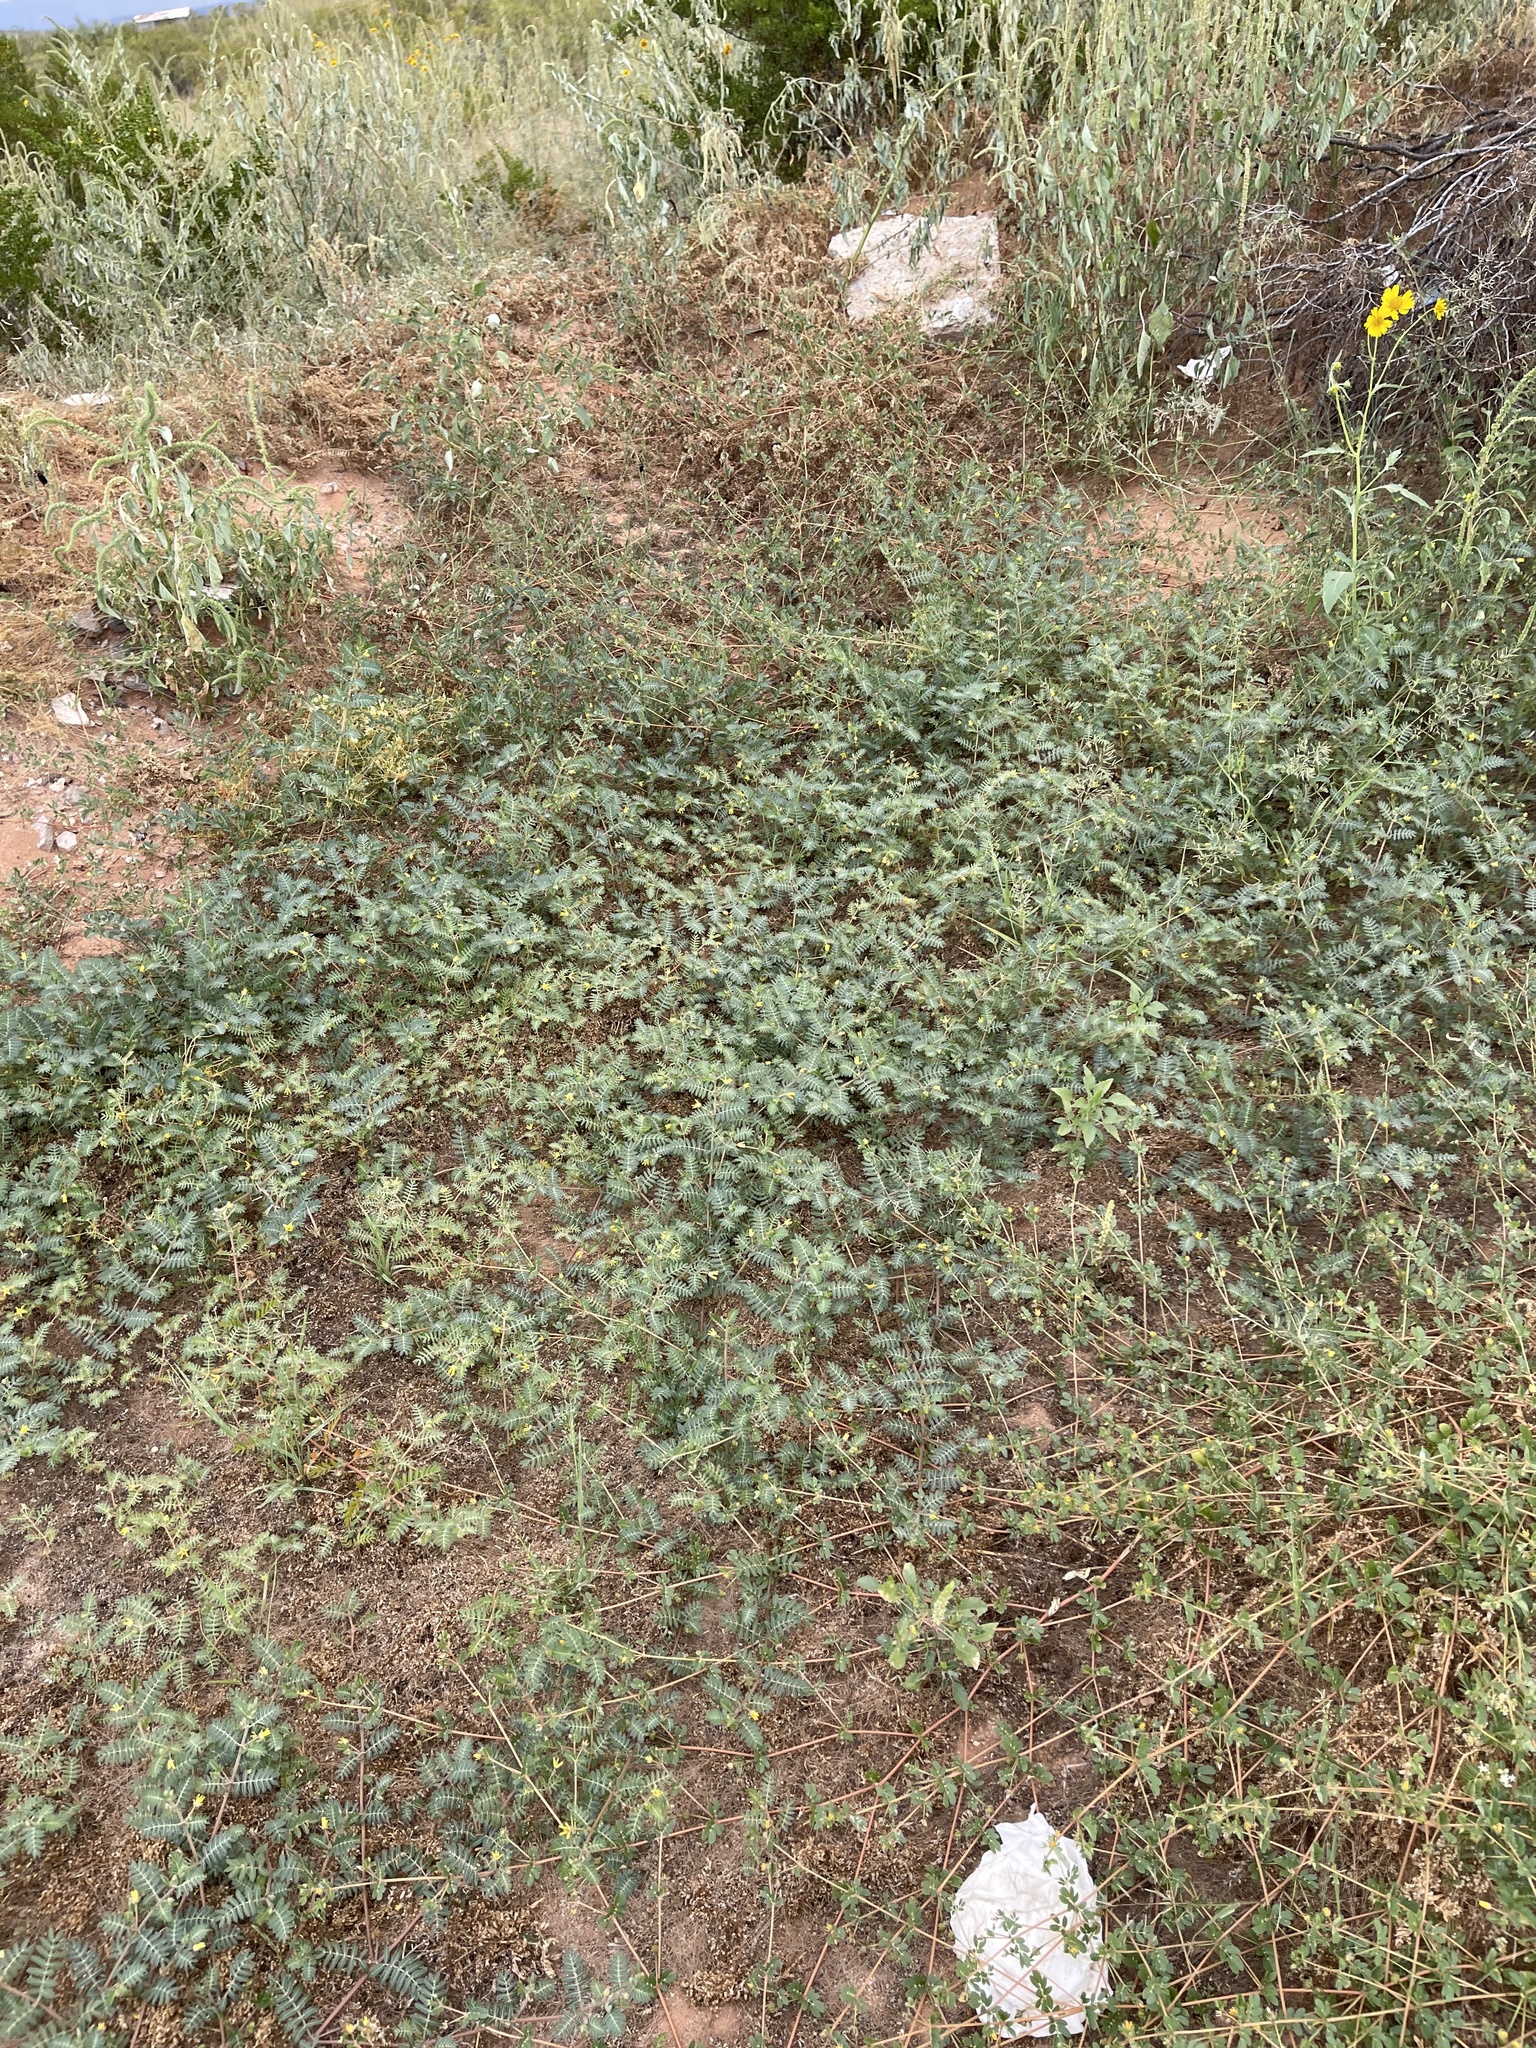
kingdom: Plantae
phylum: Tracheophyta
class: Magnoliopsida
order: Zygophyllales
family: Zygophyllaceae
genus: Tribulus
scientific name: Tribulus terrestris
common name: Puncturevine
